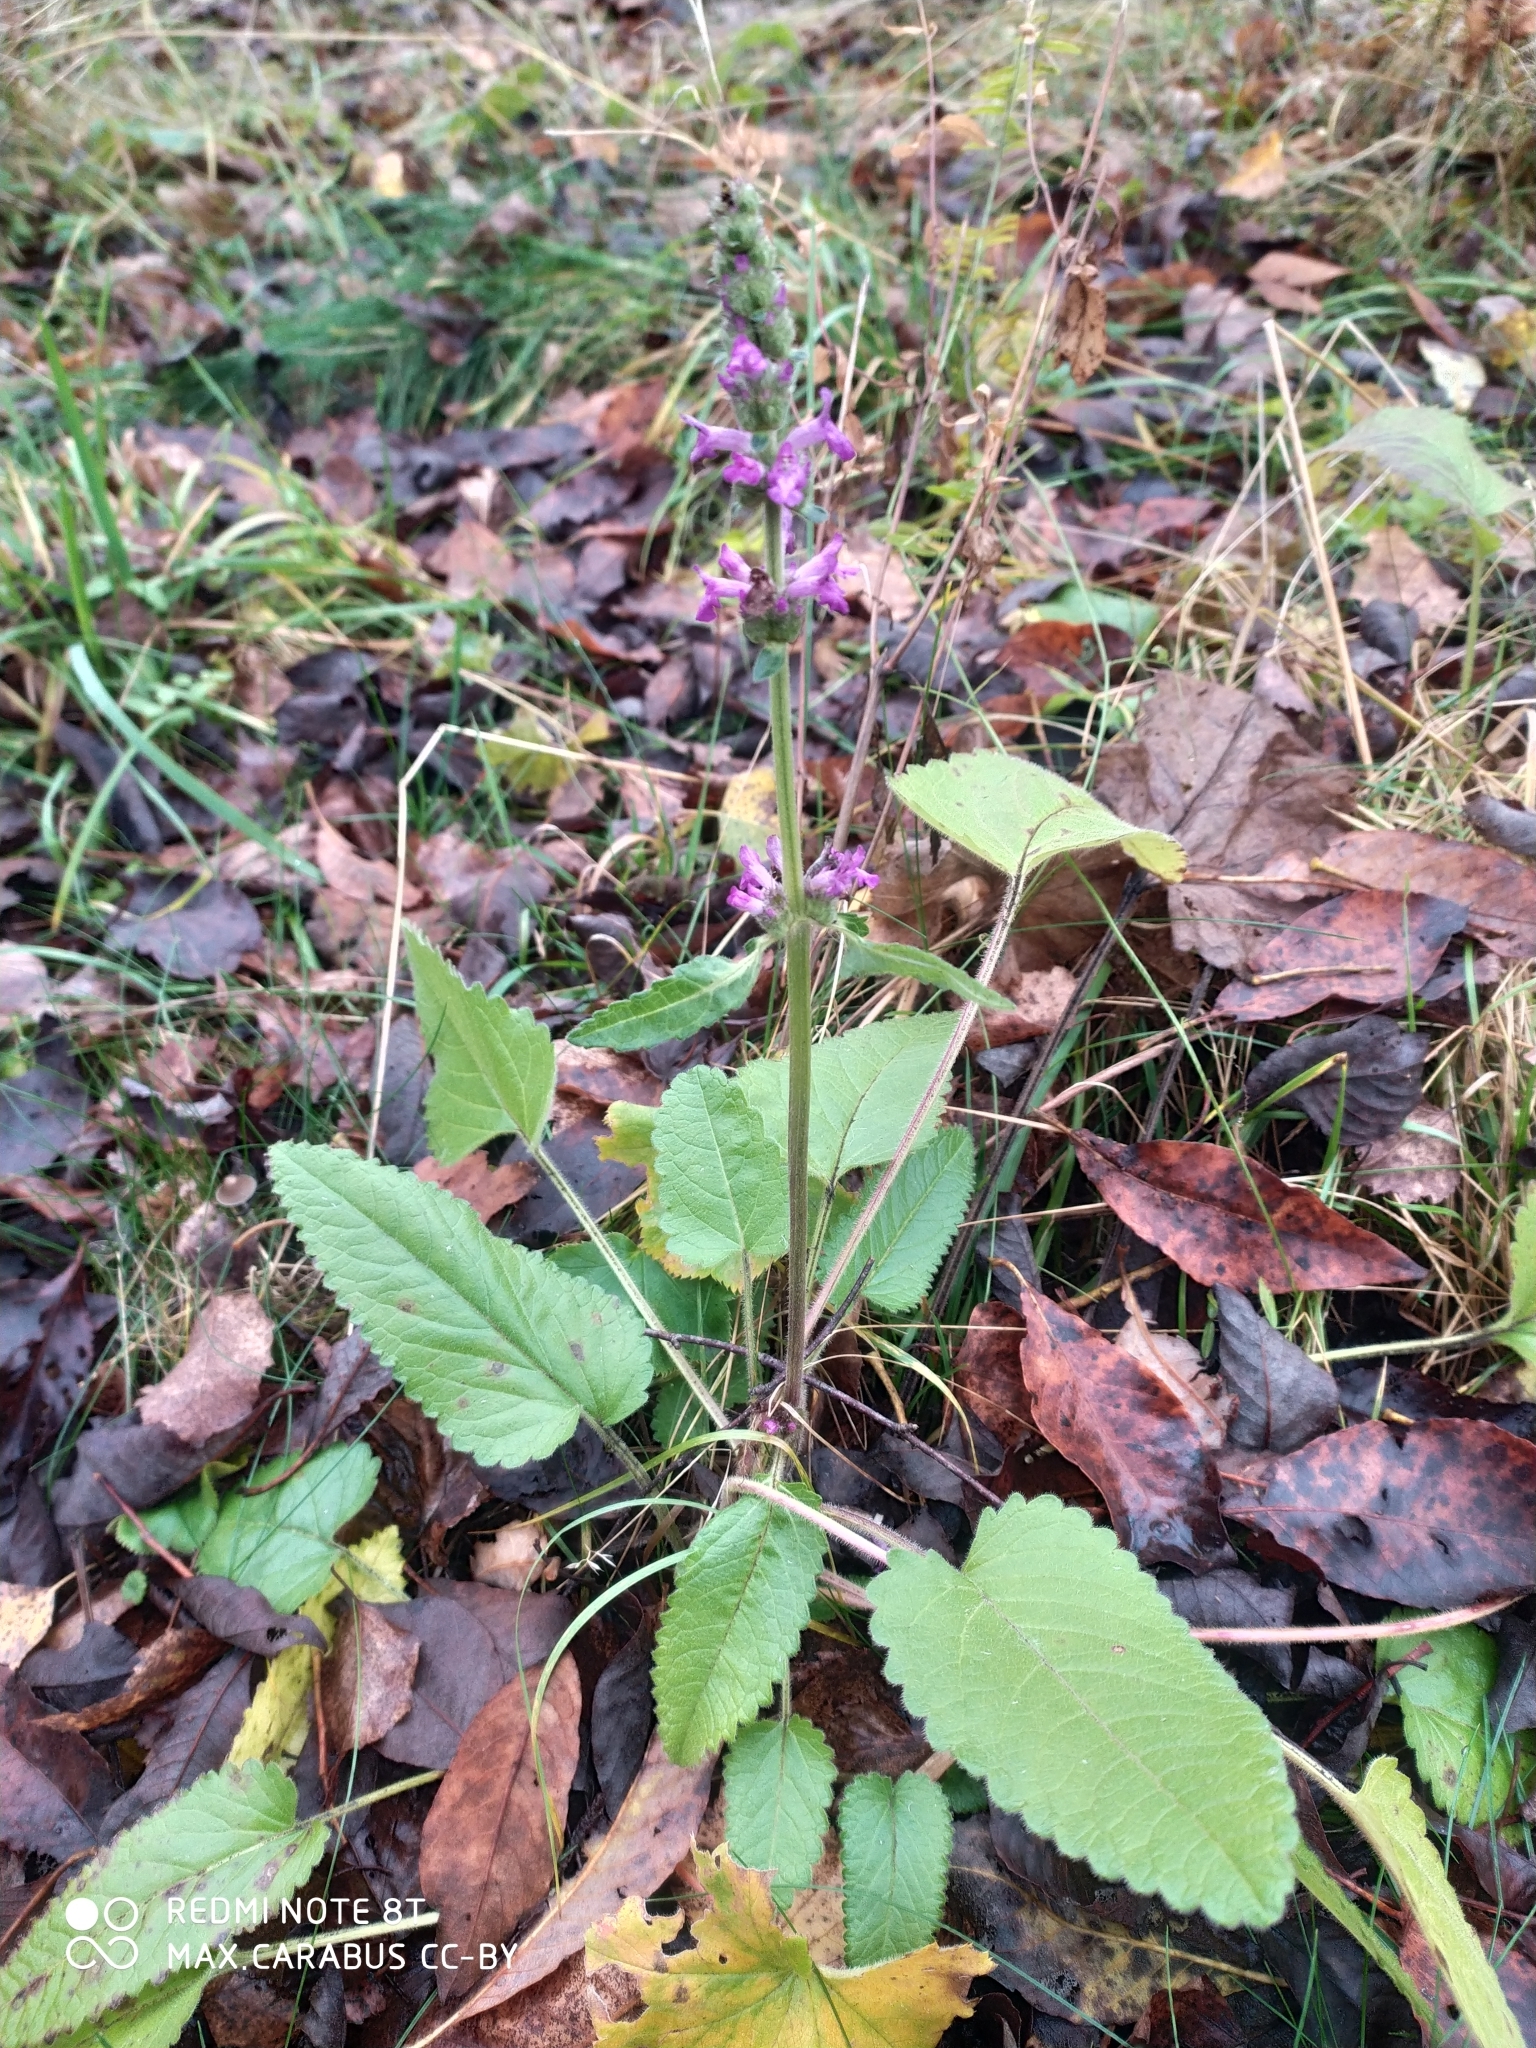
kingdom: Plantae
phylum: Tracheophyta
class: Magnoliopsida
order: Lamiales
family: Lamiaceae
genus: Betonica
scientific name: Betonica officinalis
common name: Bishop's-wort
